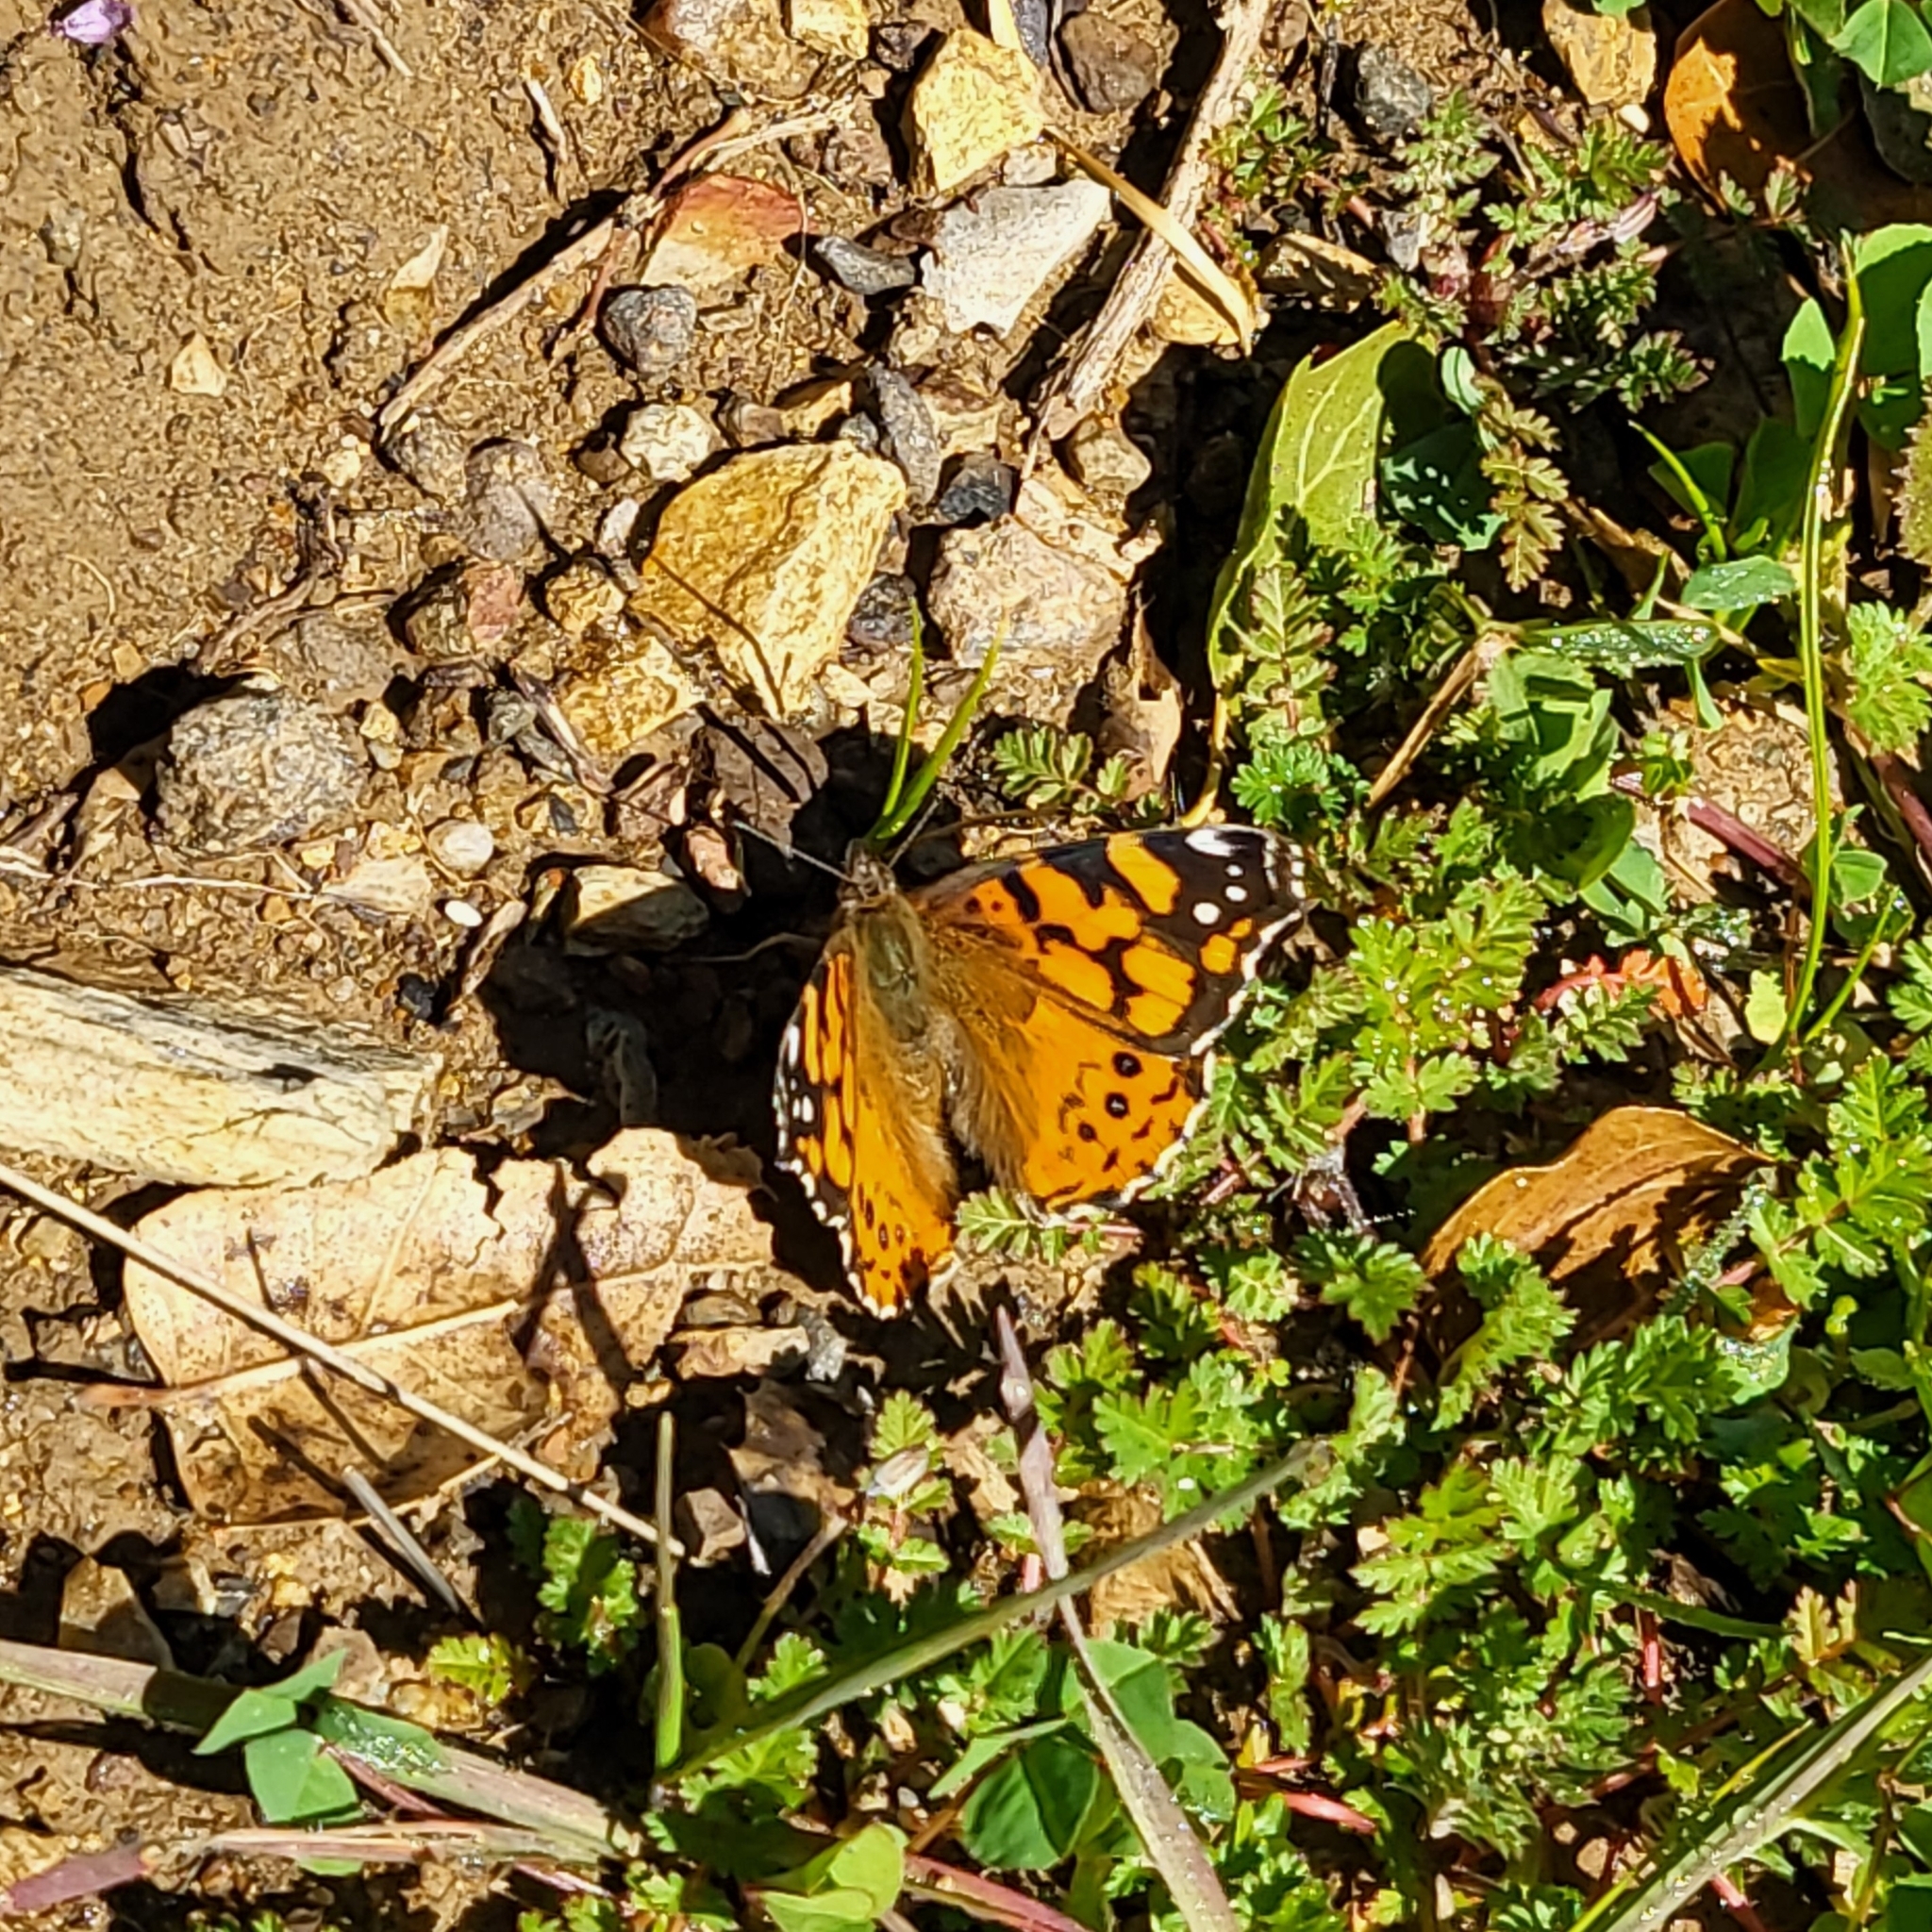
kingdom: Animalia
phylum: Arthropoda
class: Insecta
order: Lepidoptera
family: Nymphalidae
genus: Vanessa
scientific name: Vanessa annabella
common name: West coast lady
